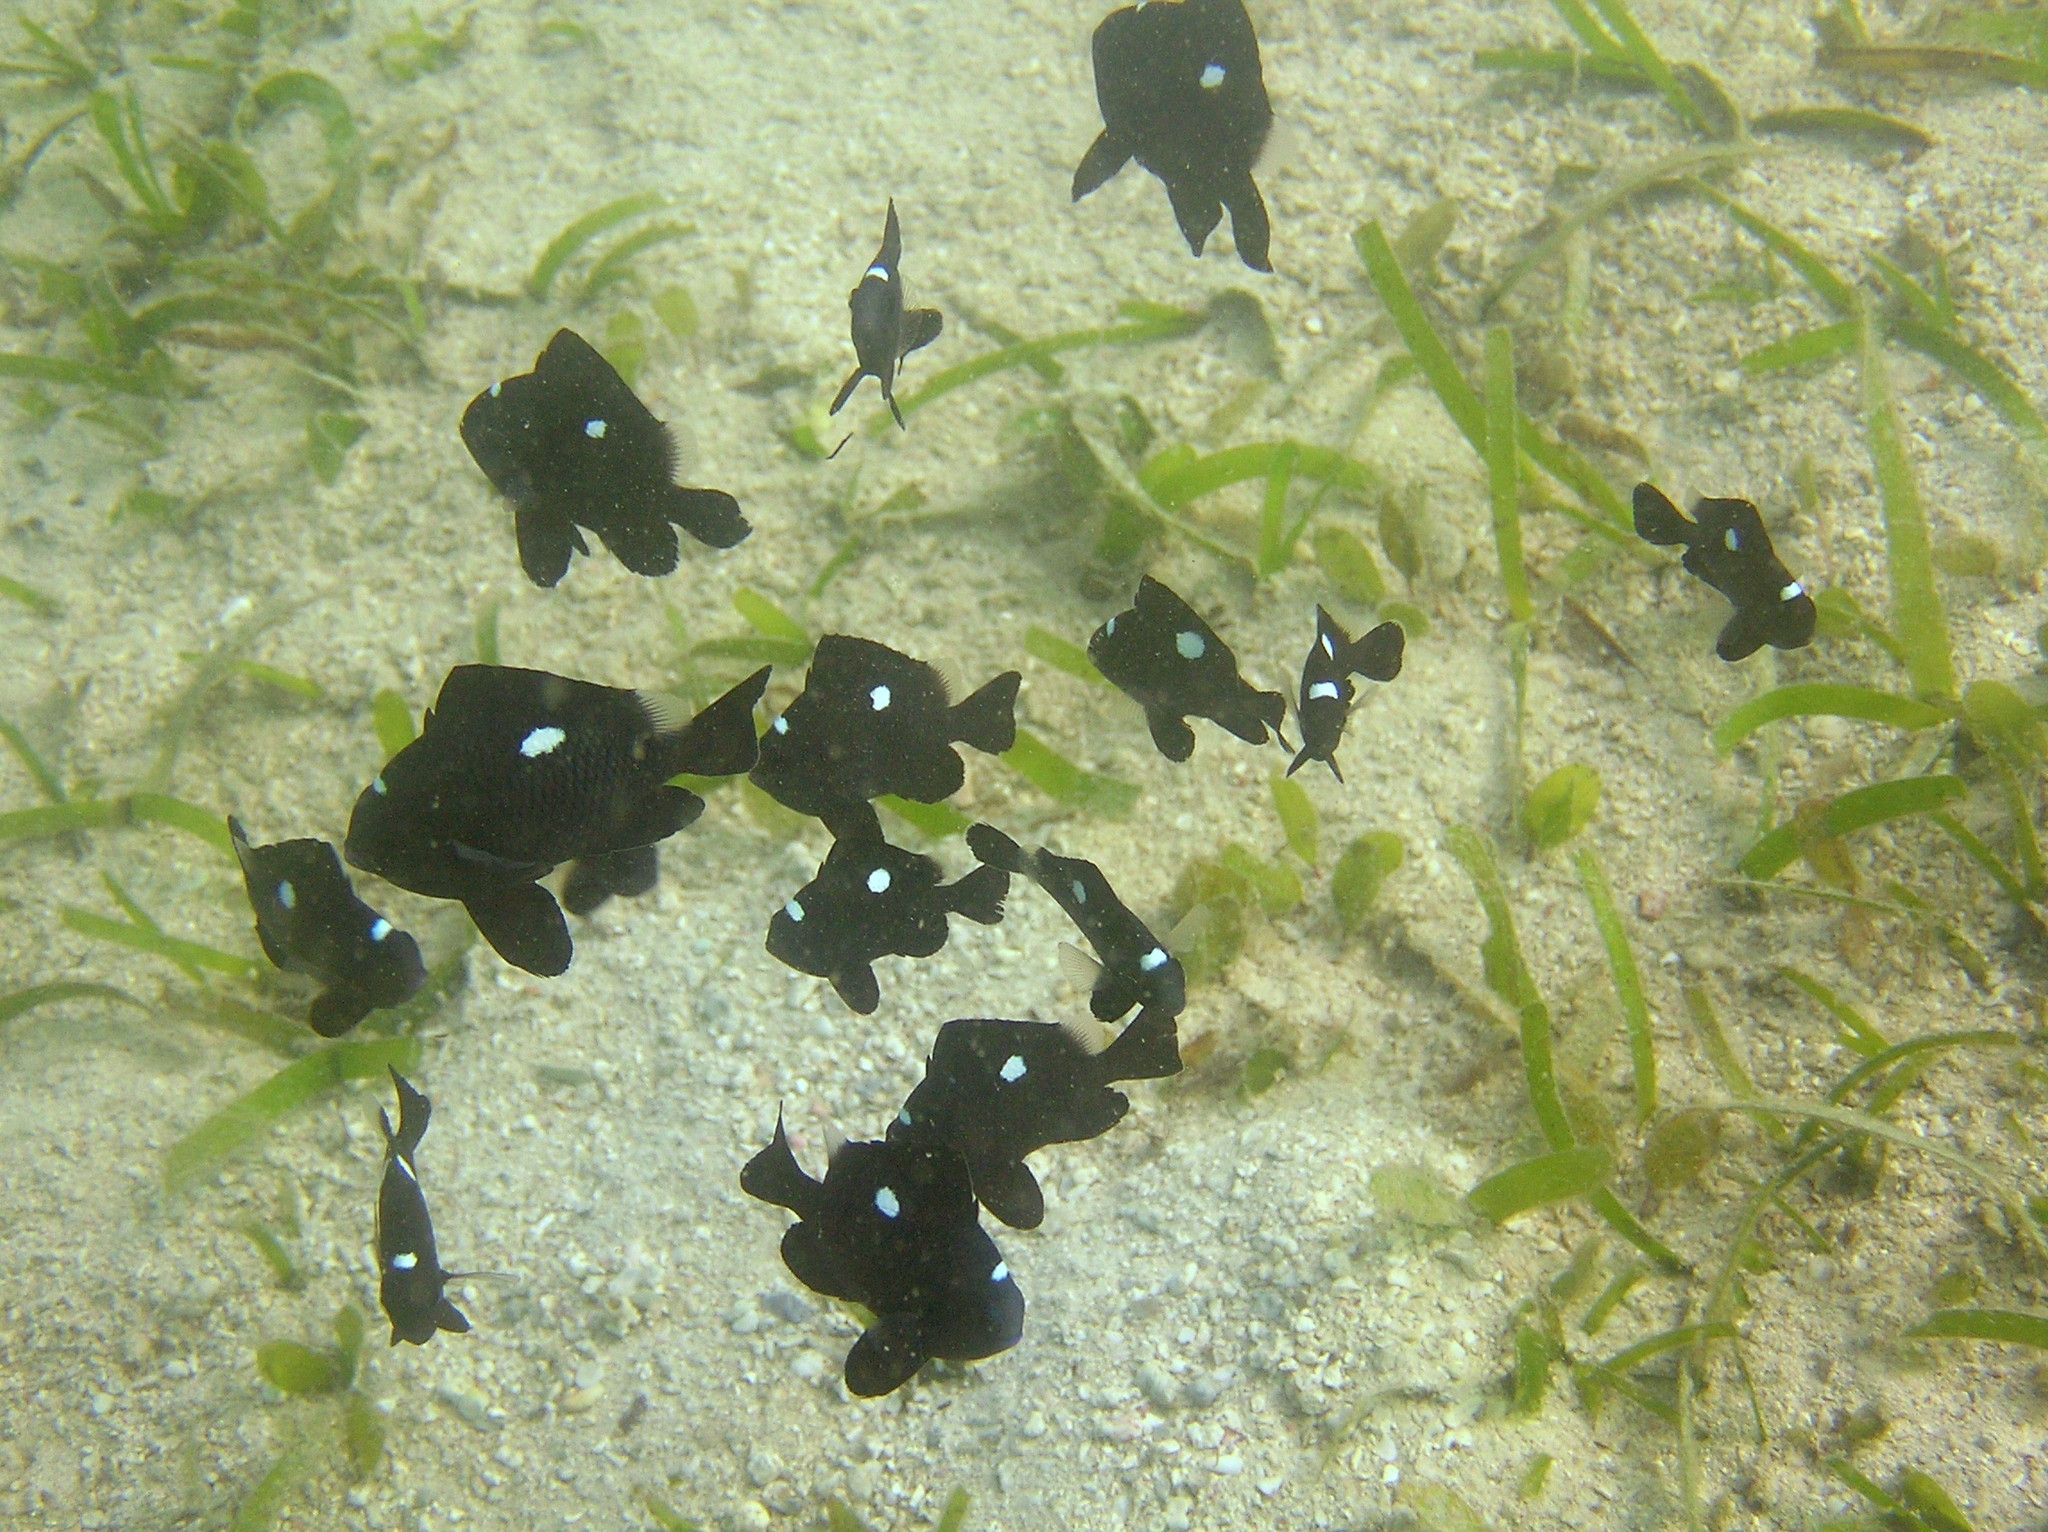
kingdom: Animalia
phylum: Chordata
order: Perciformes
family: Pomacentridae
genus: Dascyllus
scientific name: Dascyllus trimaculatus
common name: Threespot dascyllus
